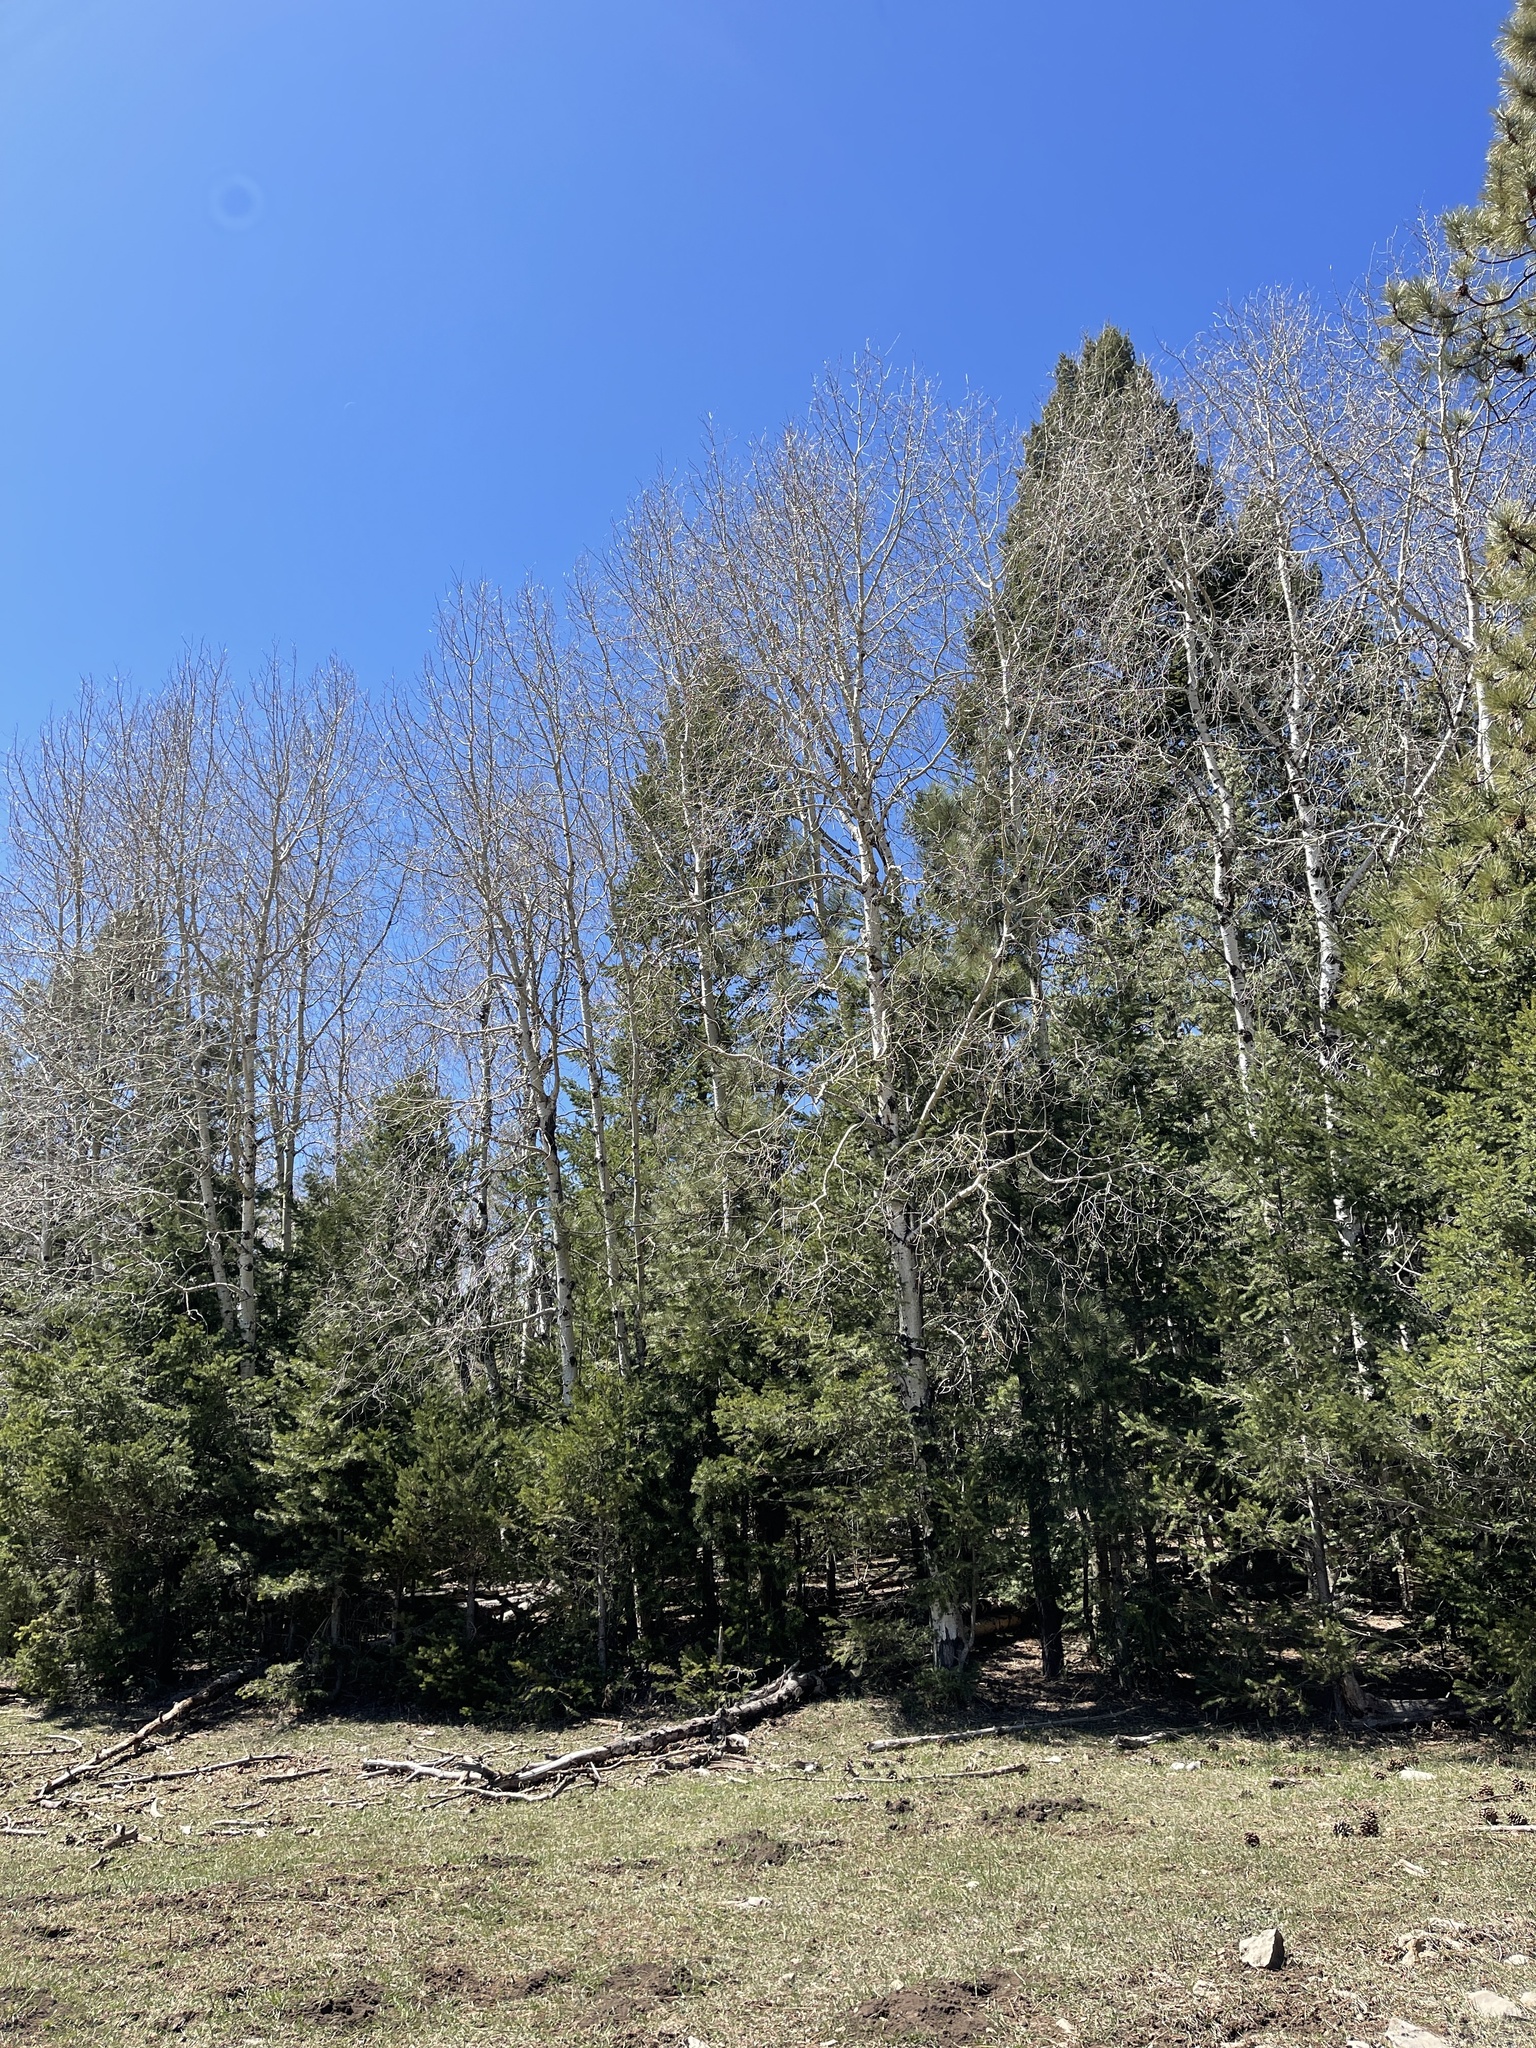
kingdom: Plantae
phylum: Tracheophyta
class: Magnoliopsida
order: Malpighiales
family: Salicaceae
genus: Populus
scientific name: Populus tremuloides
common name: Quaking aspen
